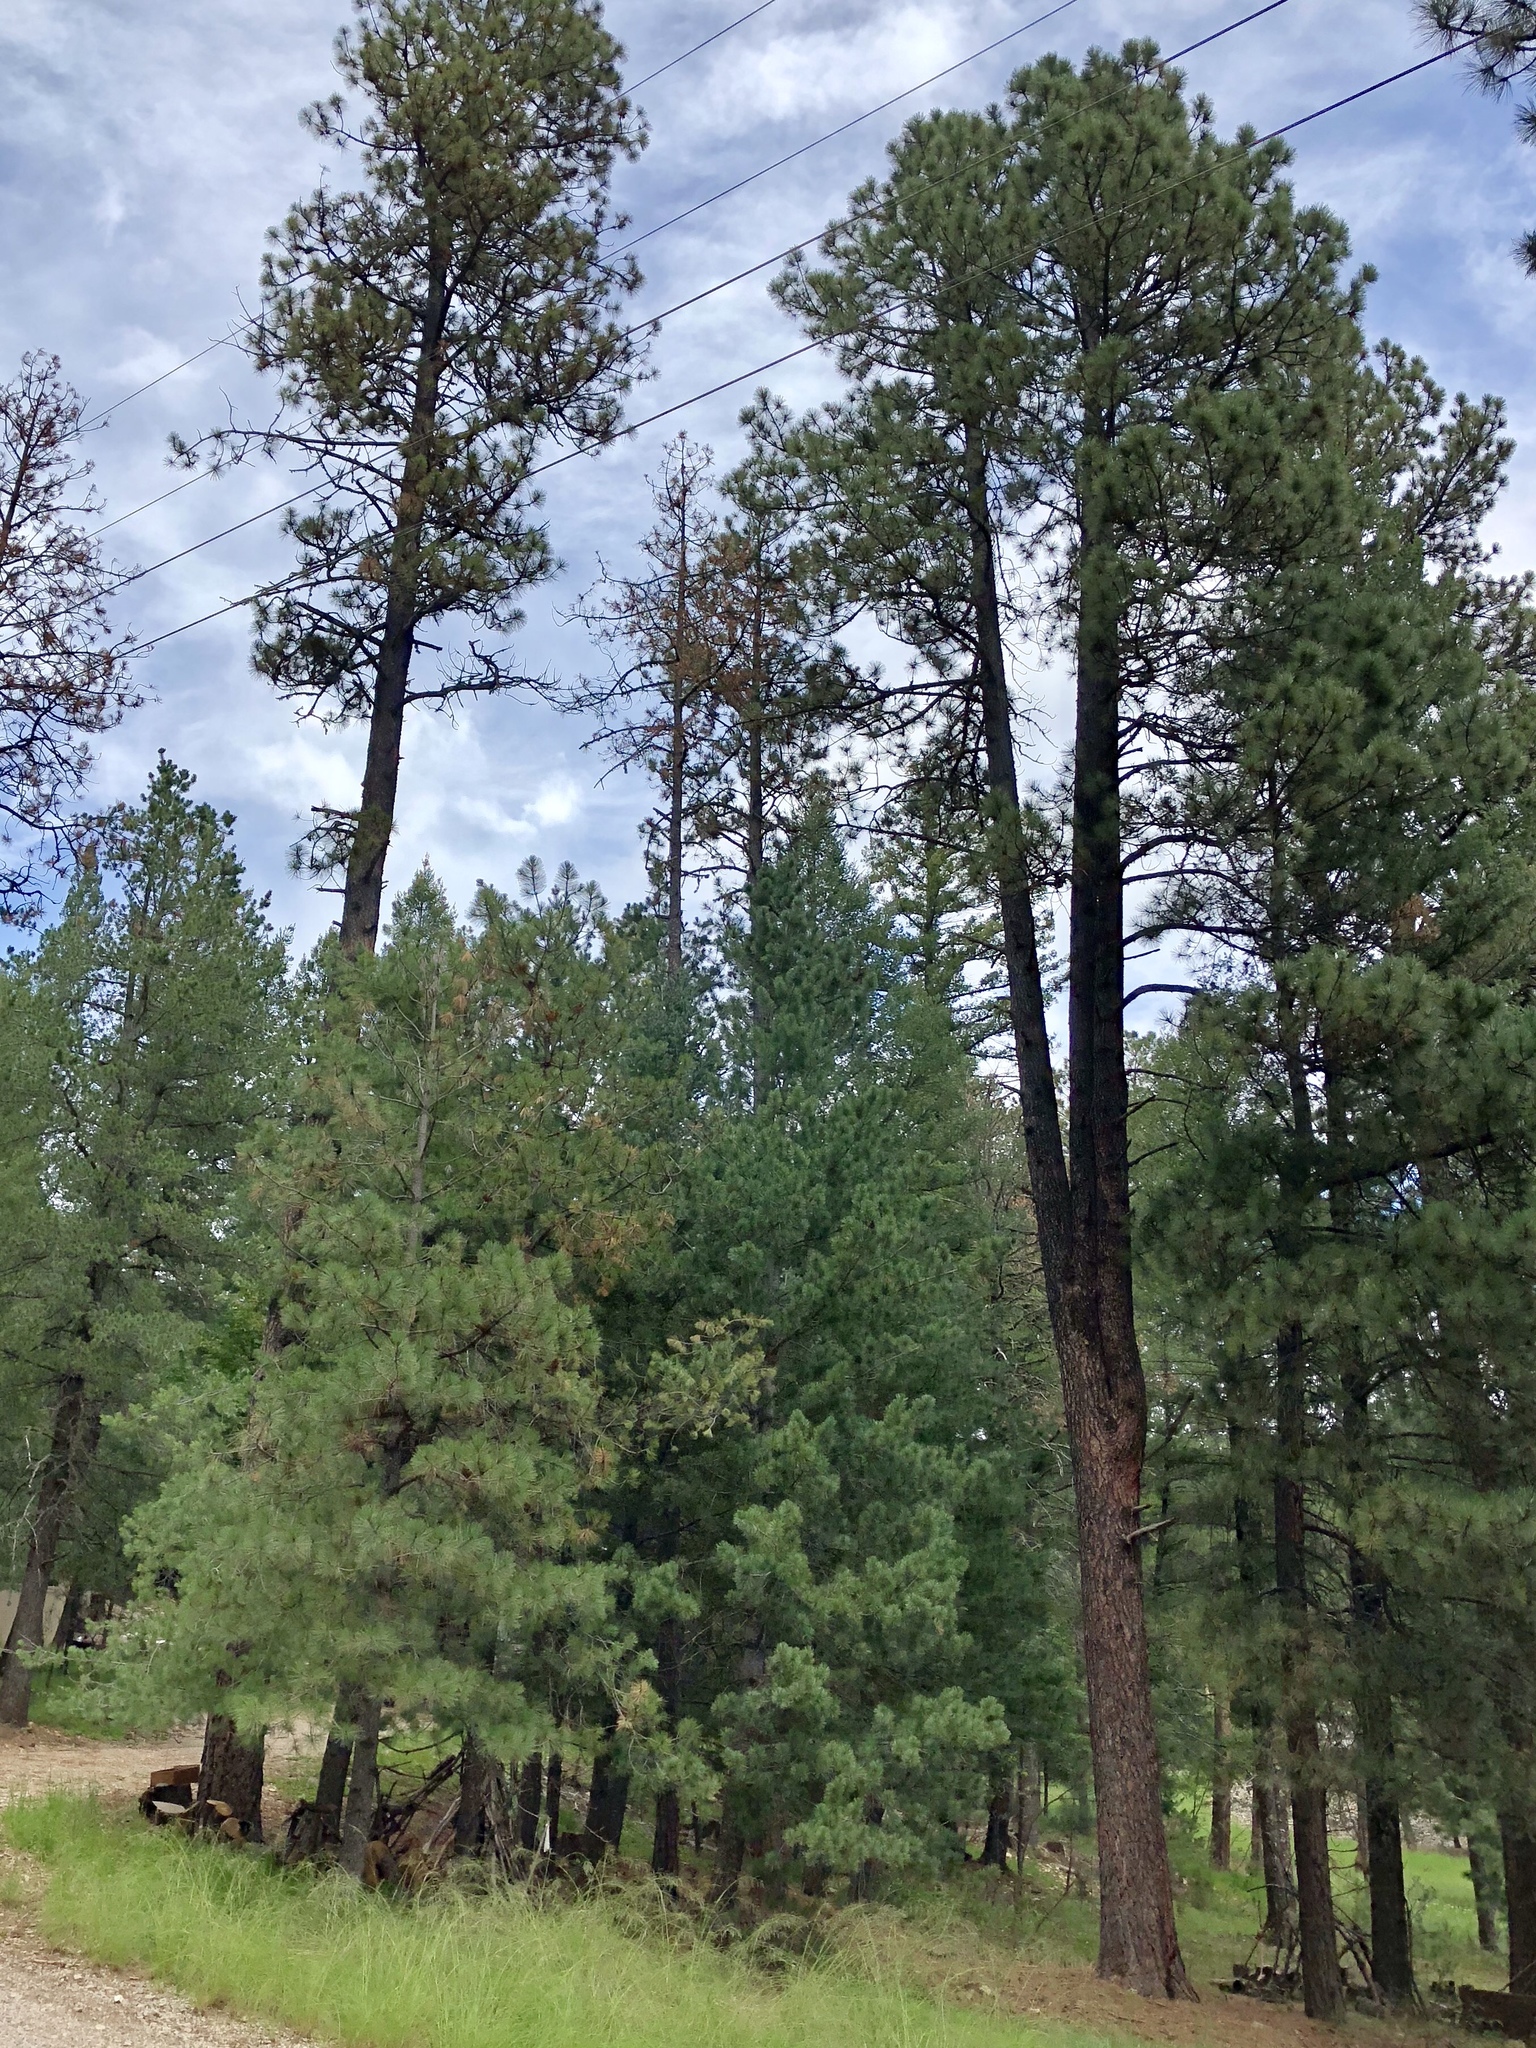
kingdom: Plantae
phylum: Tracheophyta
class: Pinopsida
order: Pinales
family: Pinaceae
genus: Pinus
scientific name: Pinus ponderosa
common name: Western yellow-pine
